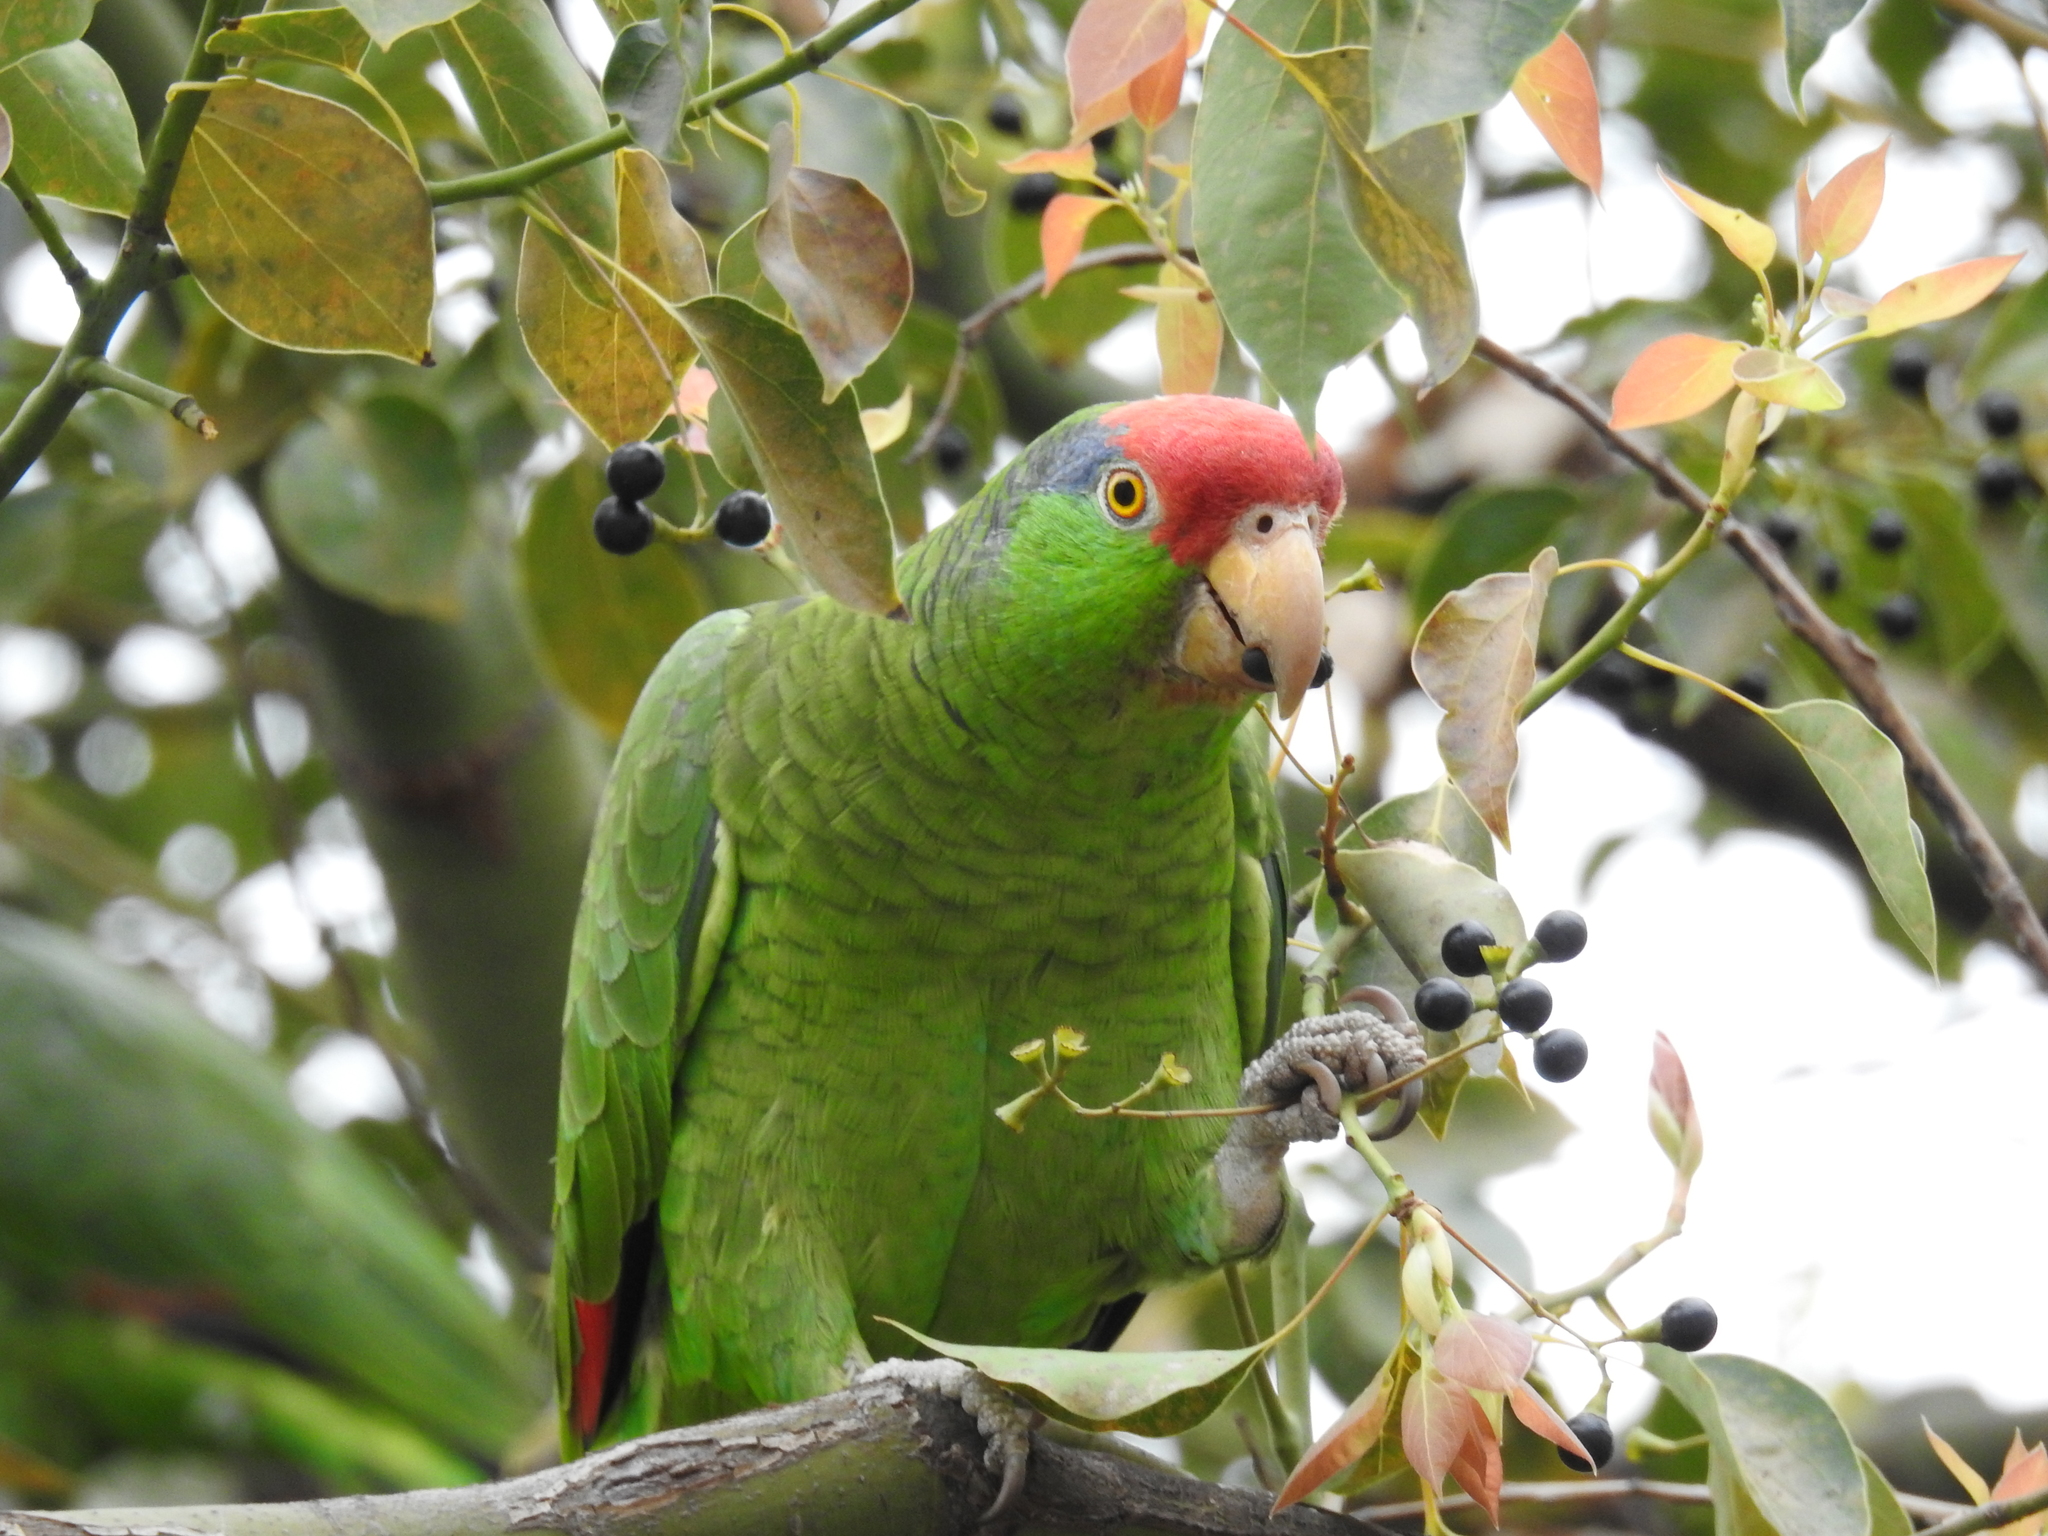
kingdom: Animalia
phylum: Chordata
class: Aves
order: Psittaciformes
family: Psittacidae
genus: Amazona
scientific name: Amazona viridigenalis
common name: Red-crowned amazon
